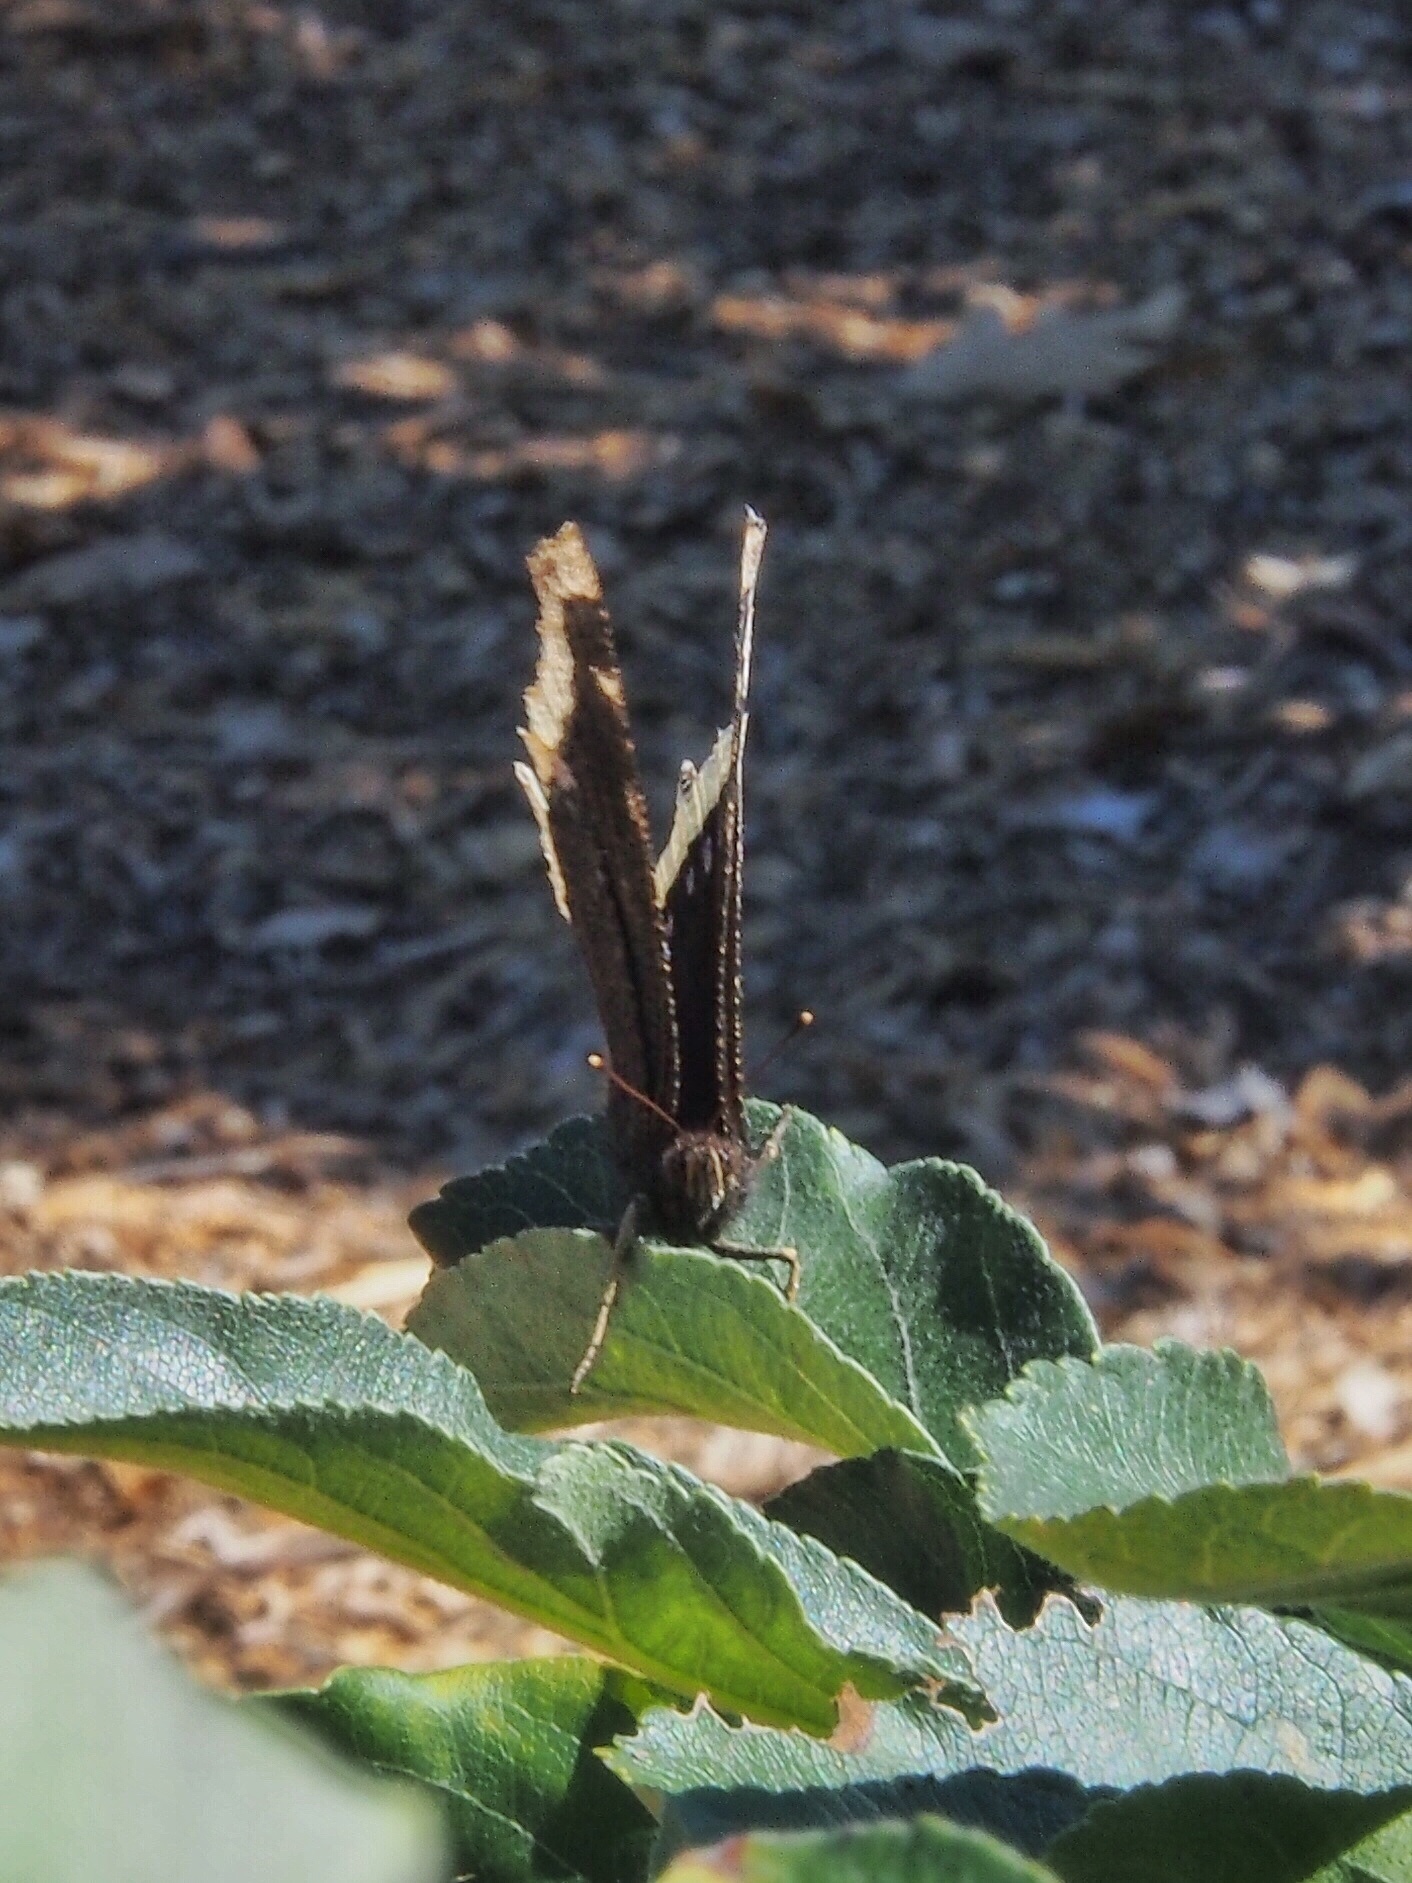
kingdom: Animalia
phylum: Arthropoda
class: Insecta
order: Lepidoptera
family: Nymphalidae
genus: Nymphalis
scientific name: Nymphalis antiopa
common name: Camberwell beauty
